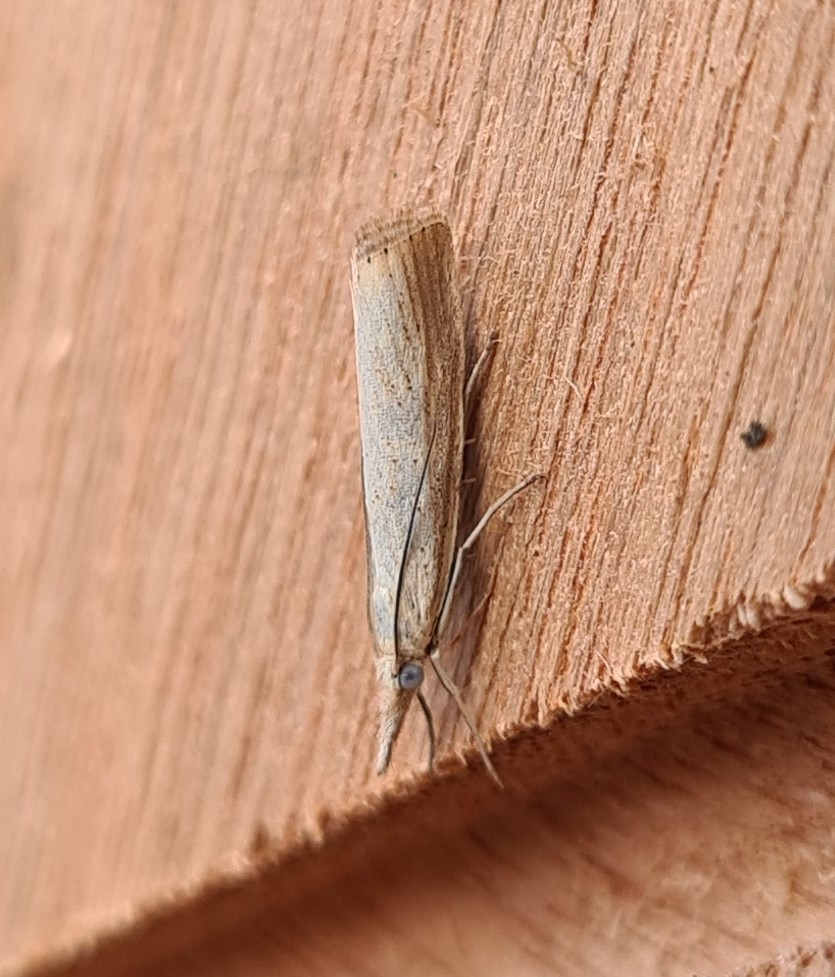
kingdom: Animalia
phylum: Arthropoda
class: Insecta
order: Lepidoptera
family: Crambidae
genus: Agriphila
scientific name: Agriphila straminella
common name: Straw grass-veneer
